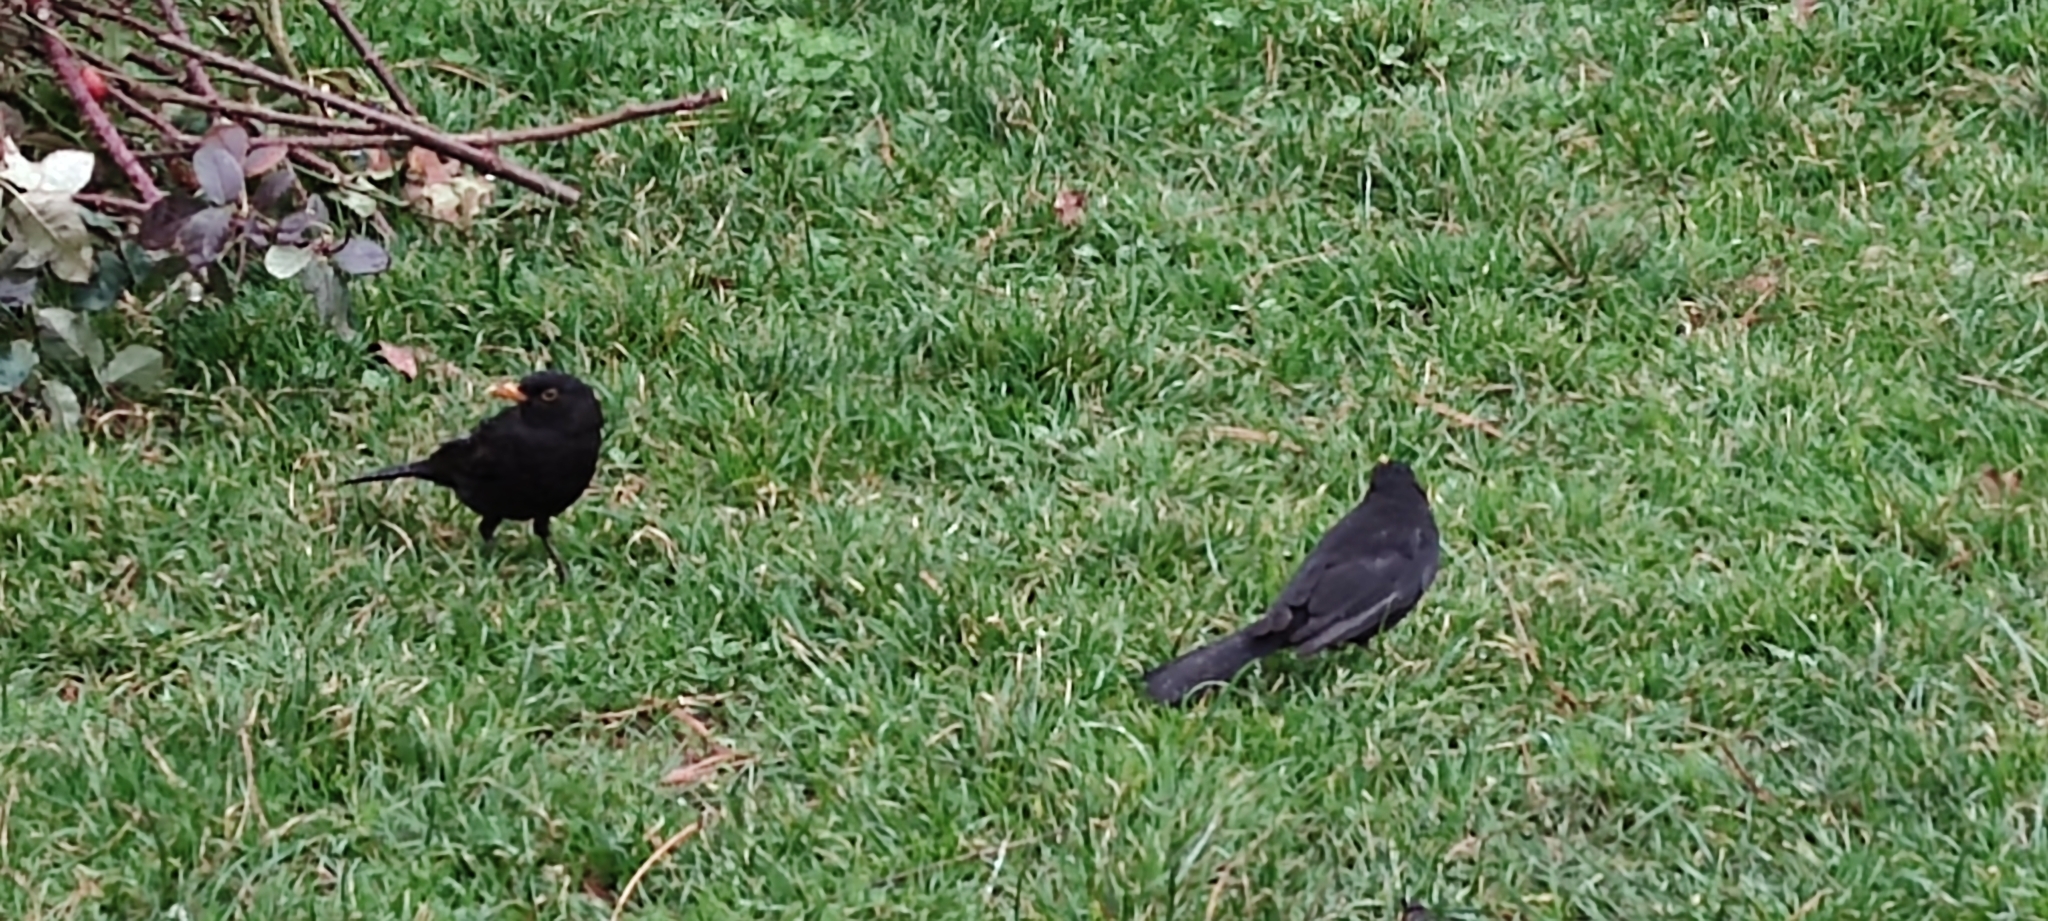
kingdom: Animalia
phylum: Chordata
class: Aves
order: Passeriformes
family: Turdidae
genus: Turdus
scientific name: Turdus merula
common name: Common blackbird
